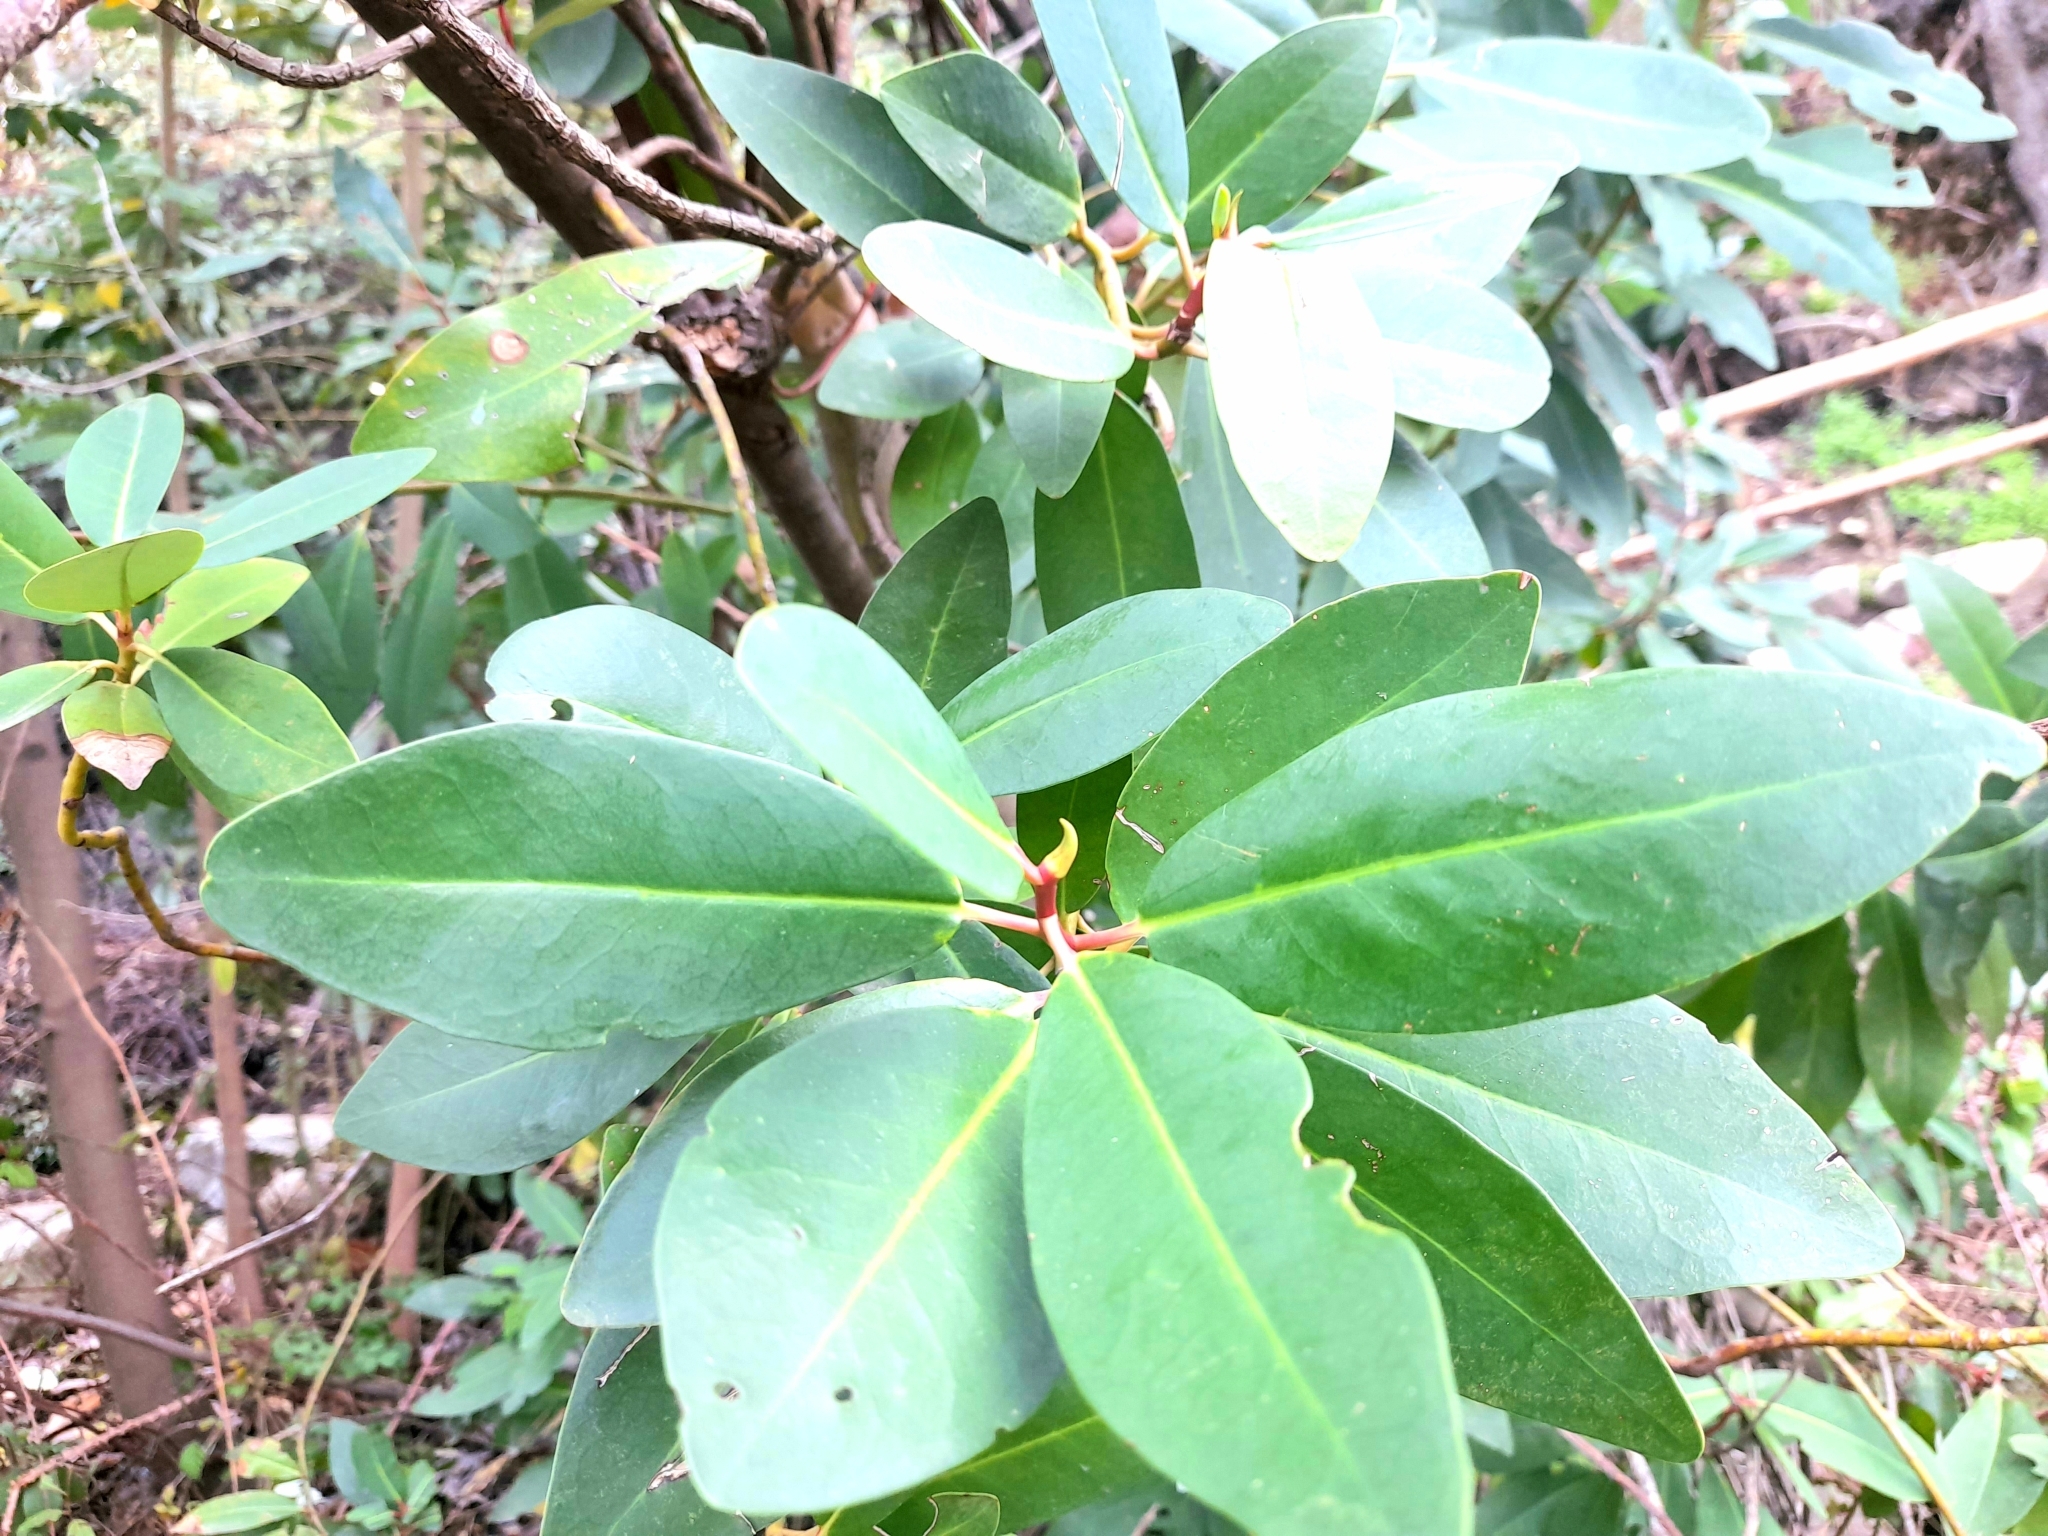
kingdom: Plantae
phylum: Tracheophyta
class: Magnoliopsida
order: Canellales
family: Winteraceae
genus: Drimys
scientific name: Drimys winteri
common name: Winter's-bark
